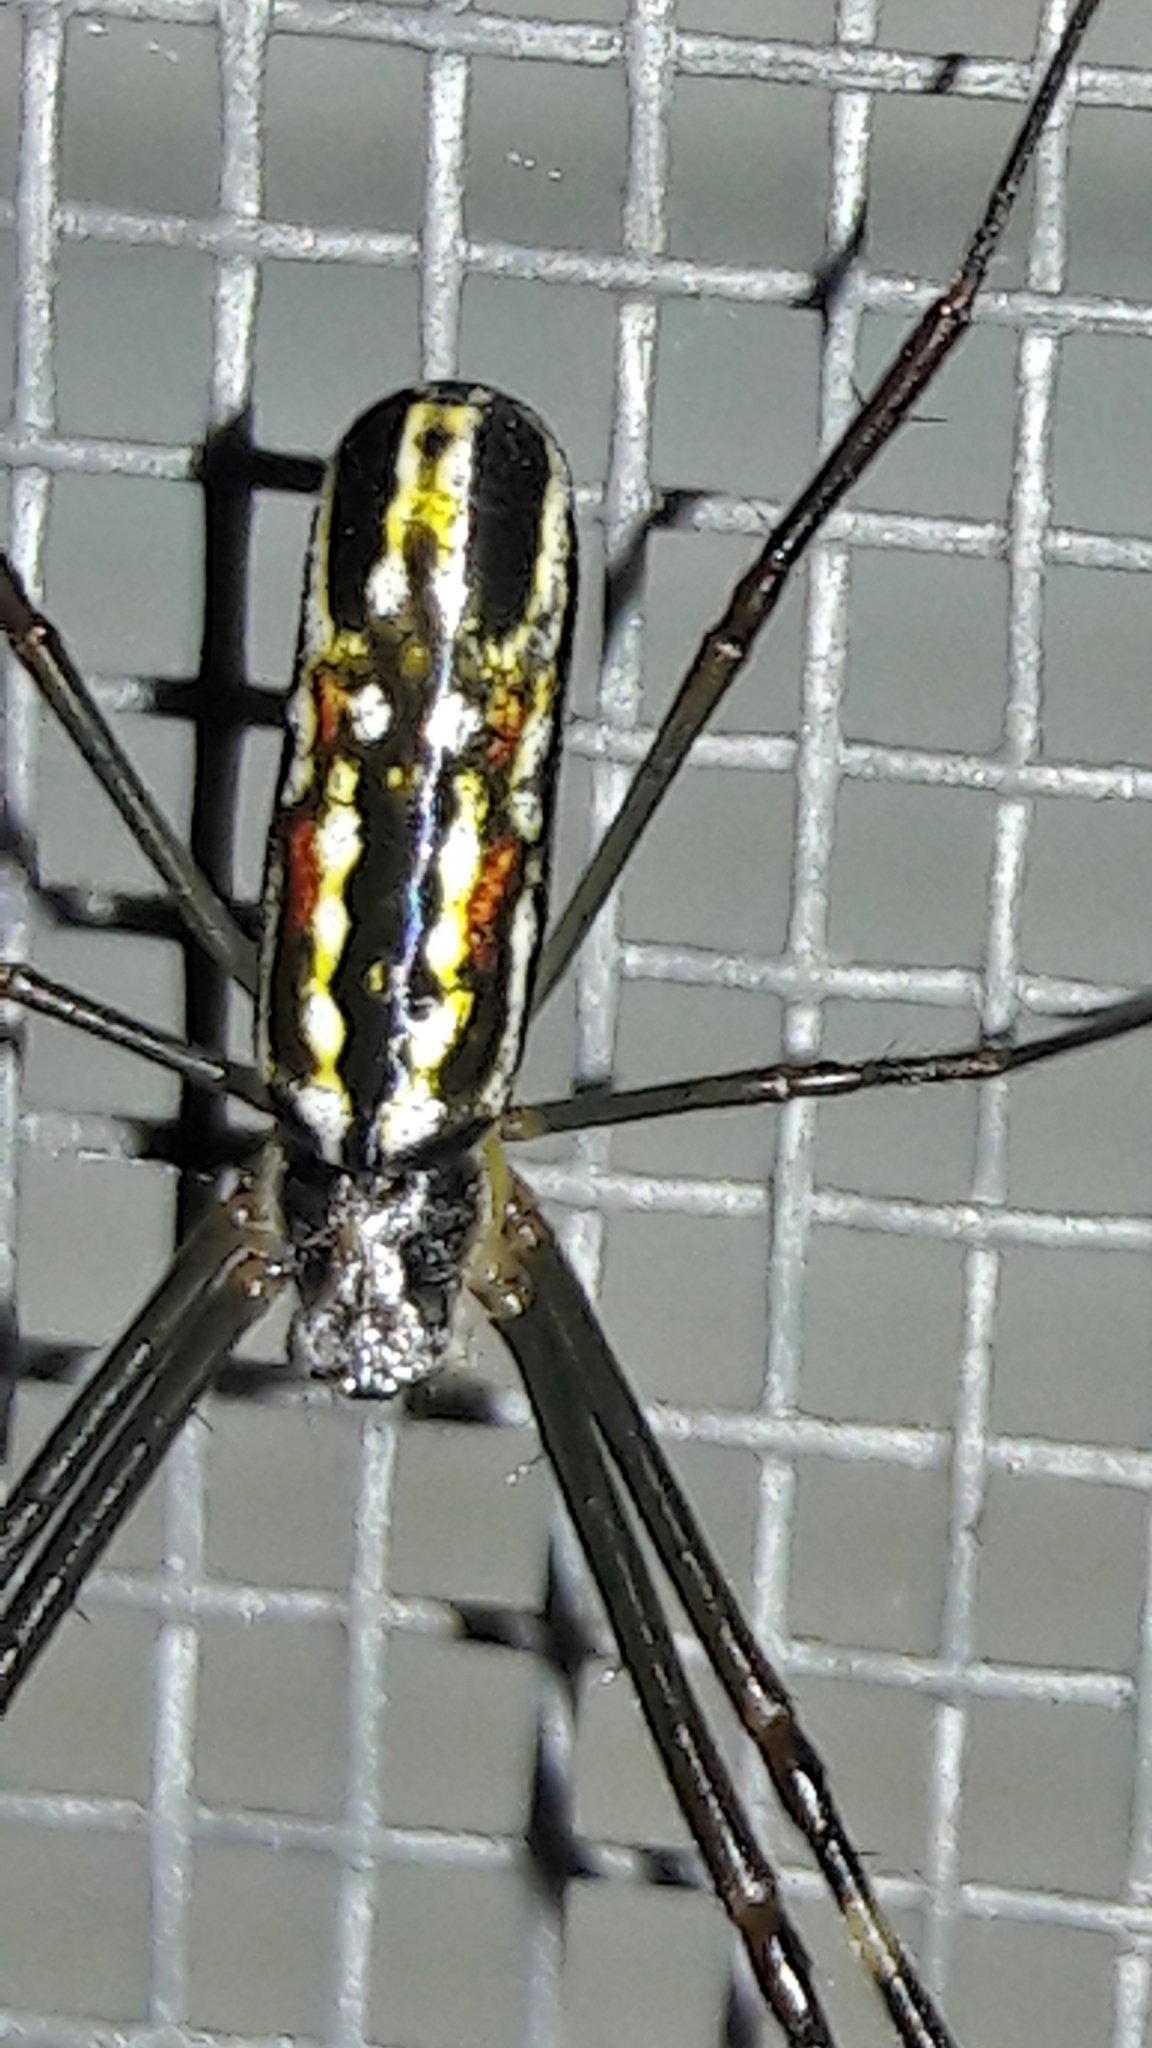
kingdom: Animalia
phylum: Arthropoda
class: Arachnida
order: Araneae
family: Araneidae
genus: Trichonephila
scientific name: Trichonephila clavipes
